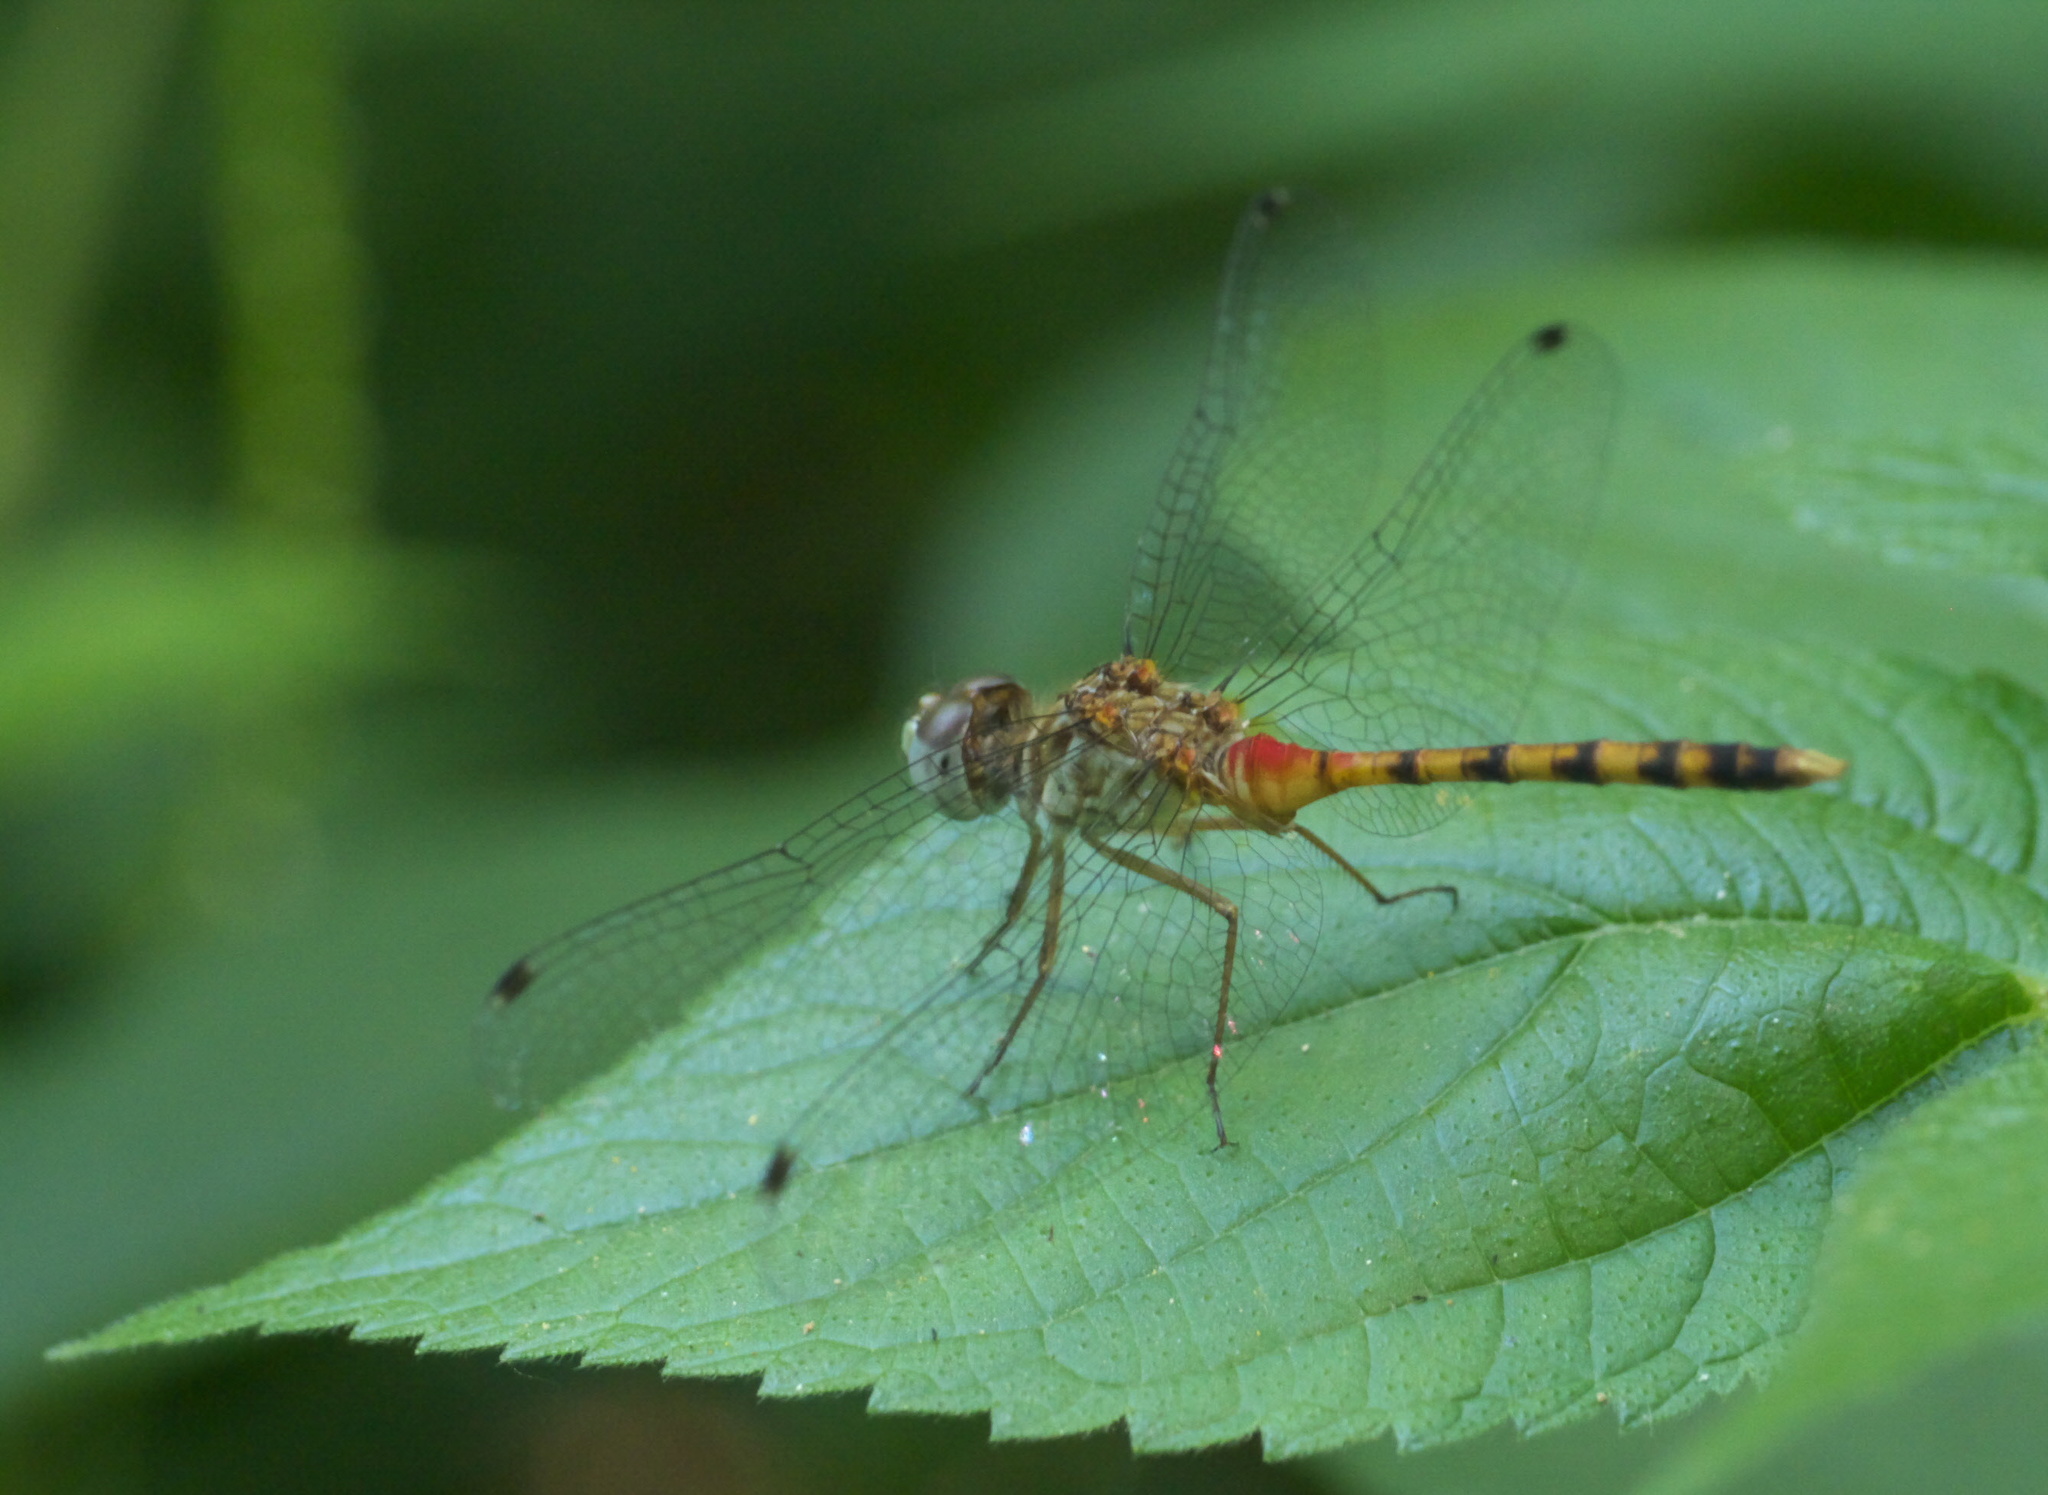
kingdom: Animalia
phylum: Arthropoda
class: Insecta
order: Odonata
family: Libellulidae
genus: Sympetrum
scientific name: Sympetrum ambiguum
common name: Blue-faced meadowhawk
